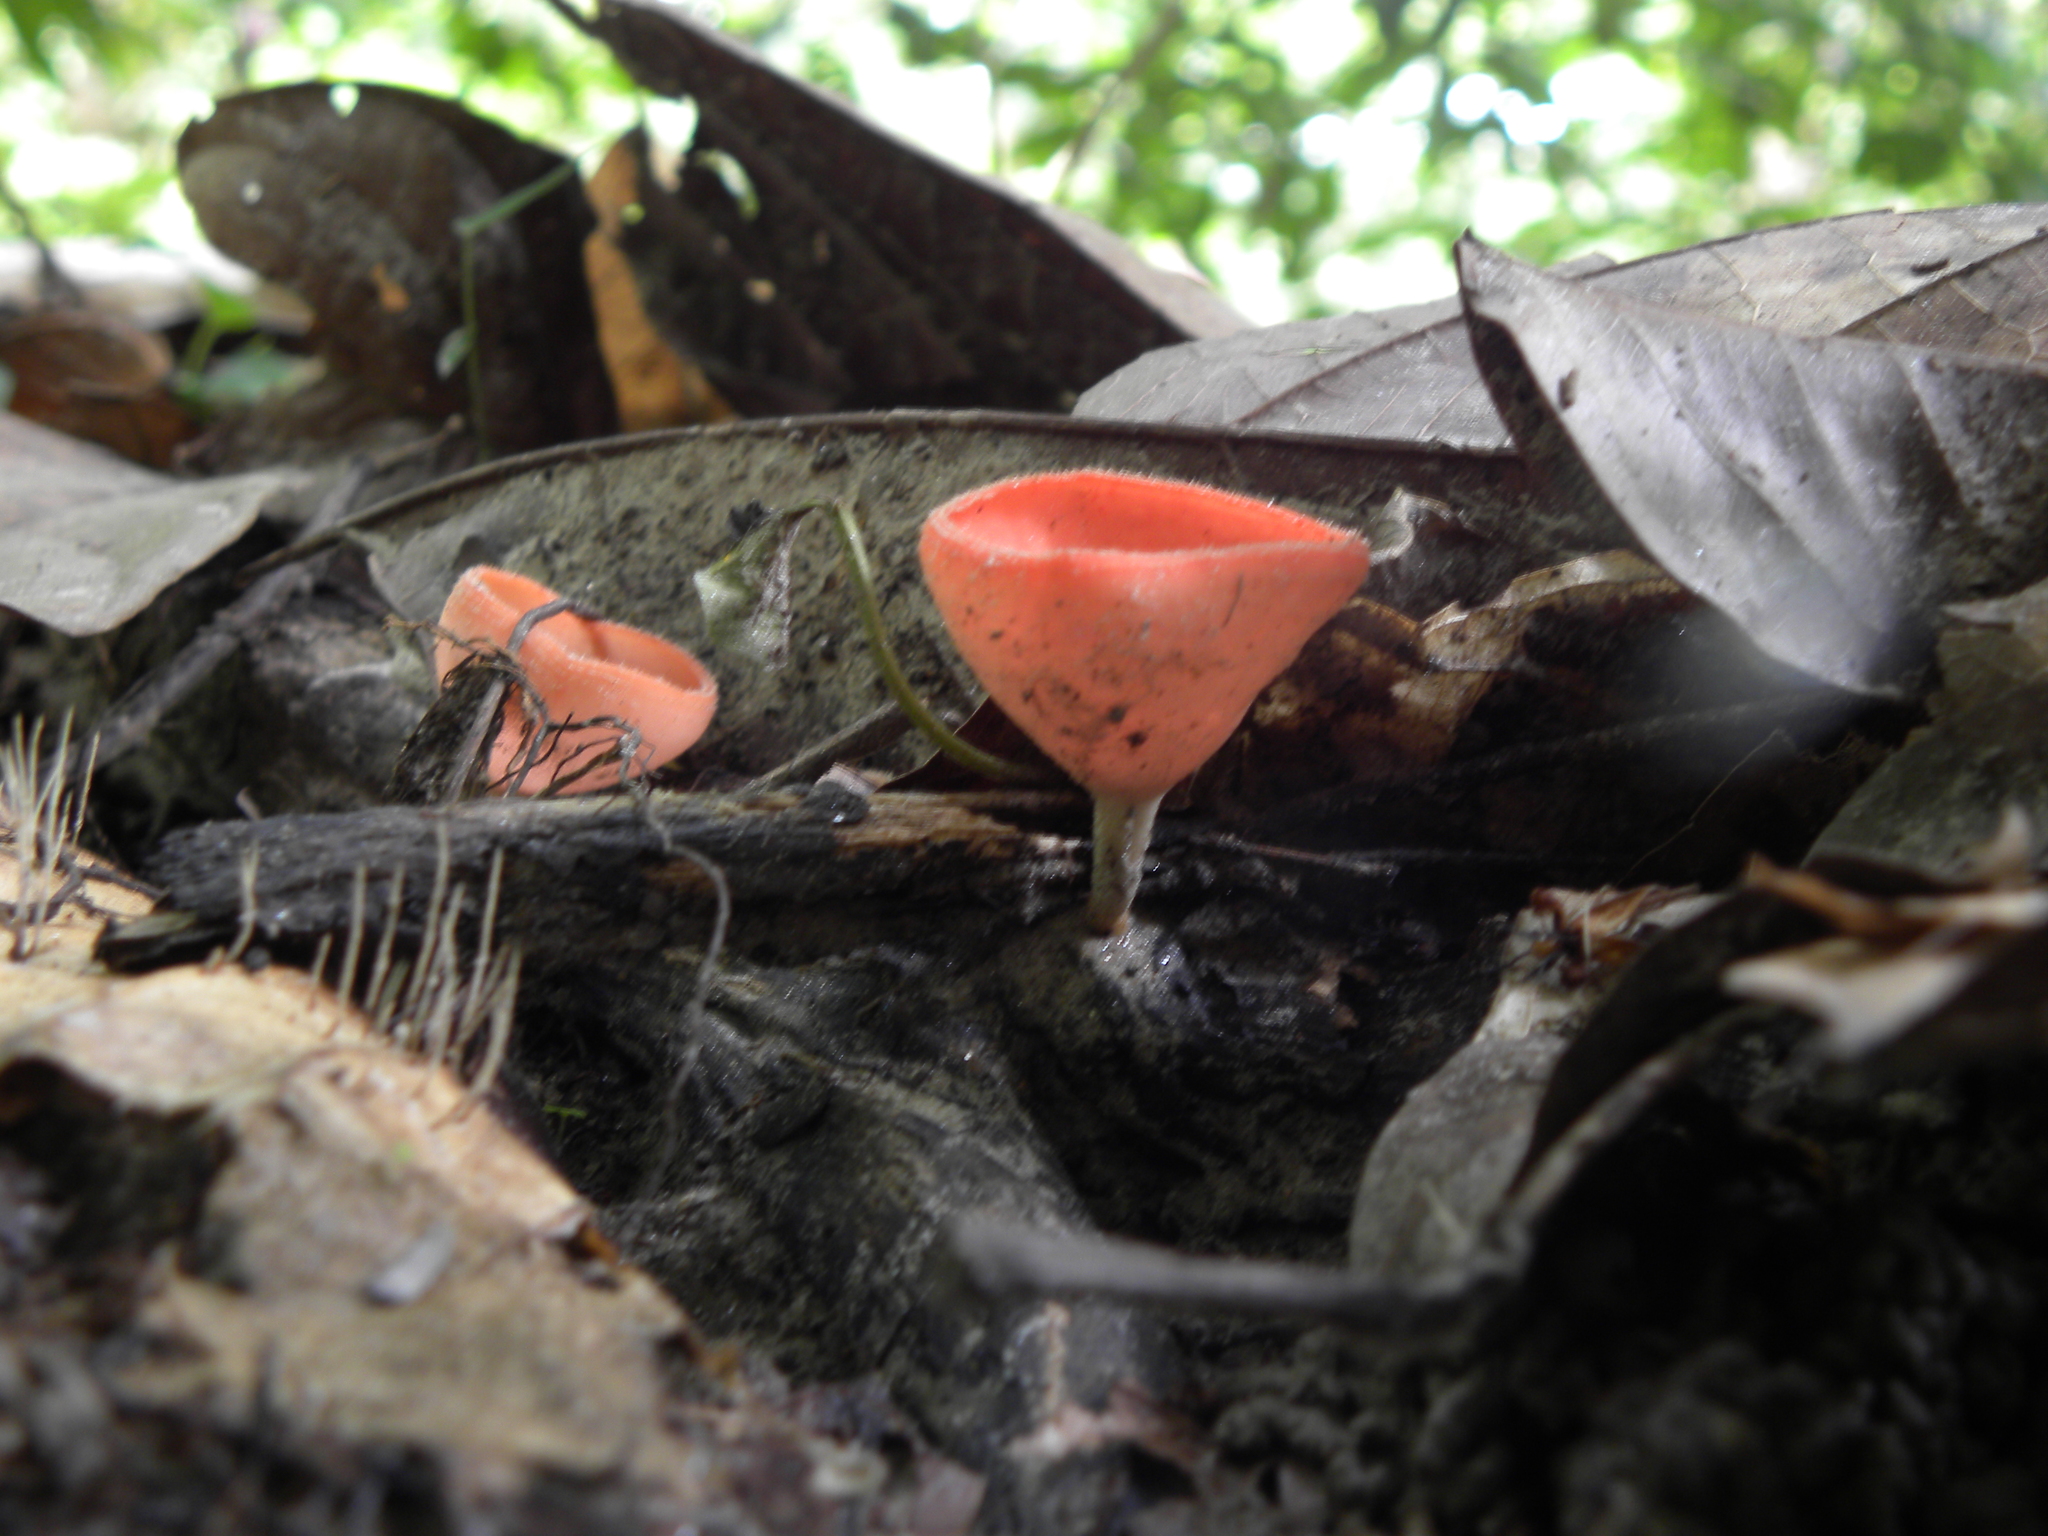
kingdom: Fungi
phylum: Ascomycota
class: Pezizomycetes
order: Pezizales
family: Sarcoscyphaceae
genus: Cookeina
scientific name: Cookeina speciosa
